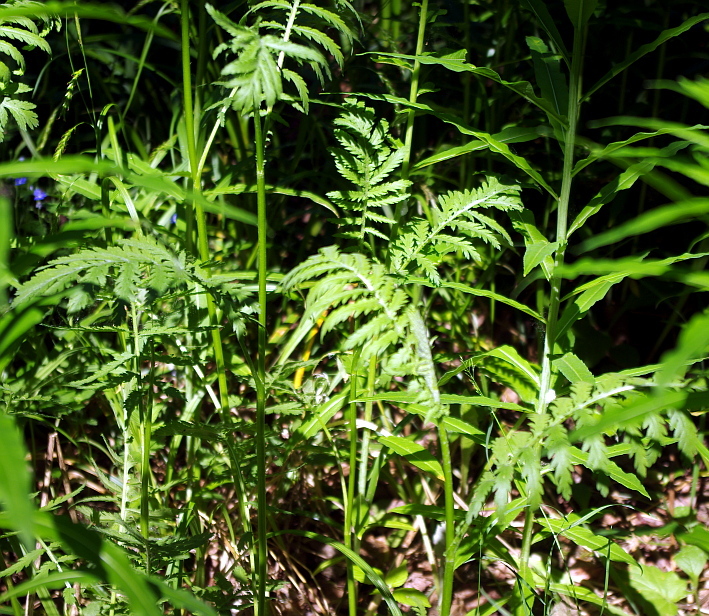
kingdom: Plantae
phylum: Tracheophyta
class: Magnoliopsida
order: Asterales
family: Asteraceae
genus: Tanacetum
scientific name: Tanacetum vulgare
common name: Common tansy
